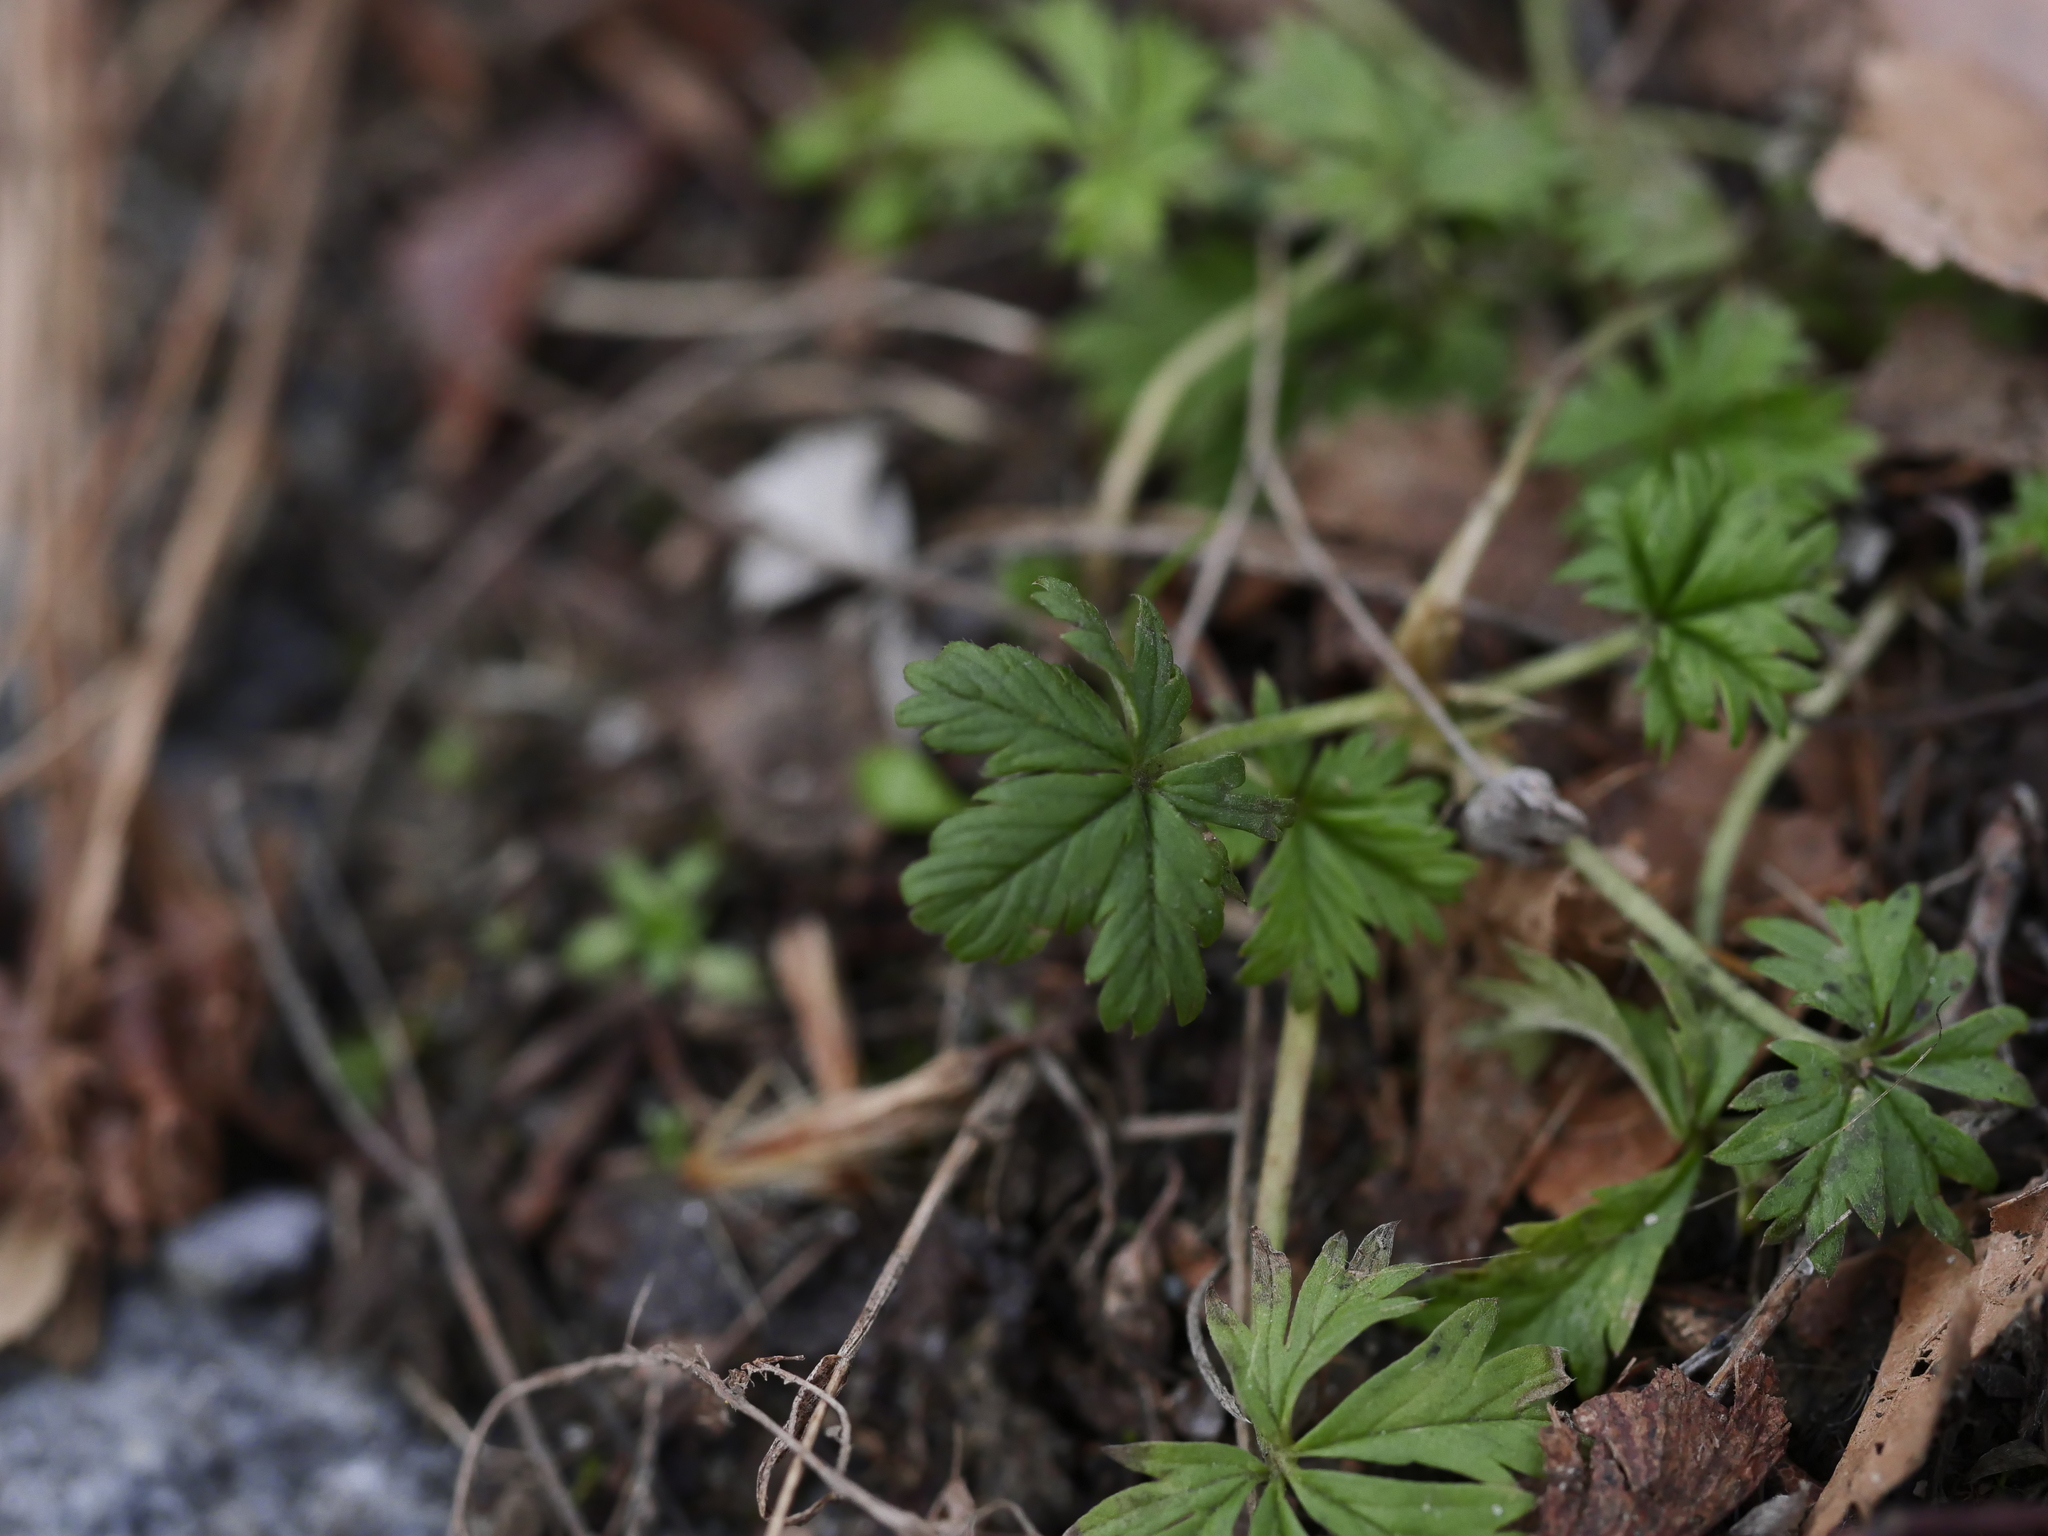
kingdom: Plantae
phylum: Tracheophyta
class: Magnoliopsida
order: Rosales
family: Rosaceae
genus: Potentilla
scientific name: Potentilla argentea
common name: Hoary cinquefoil
